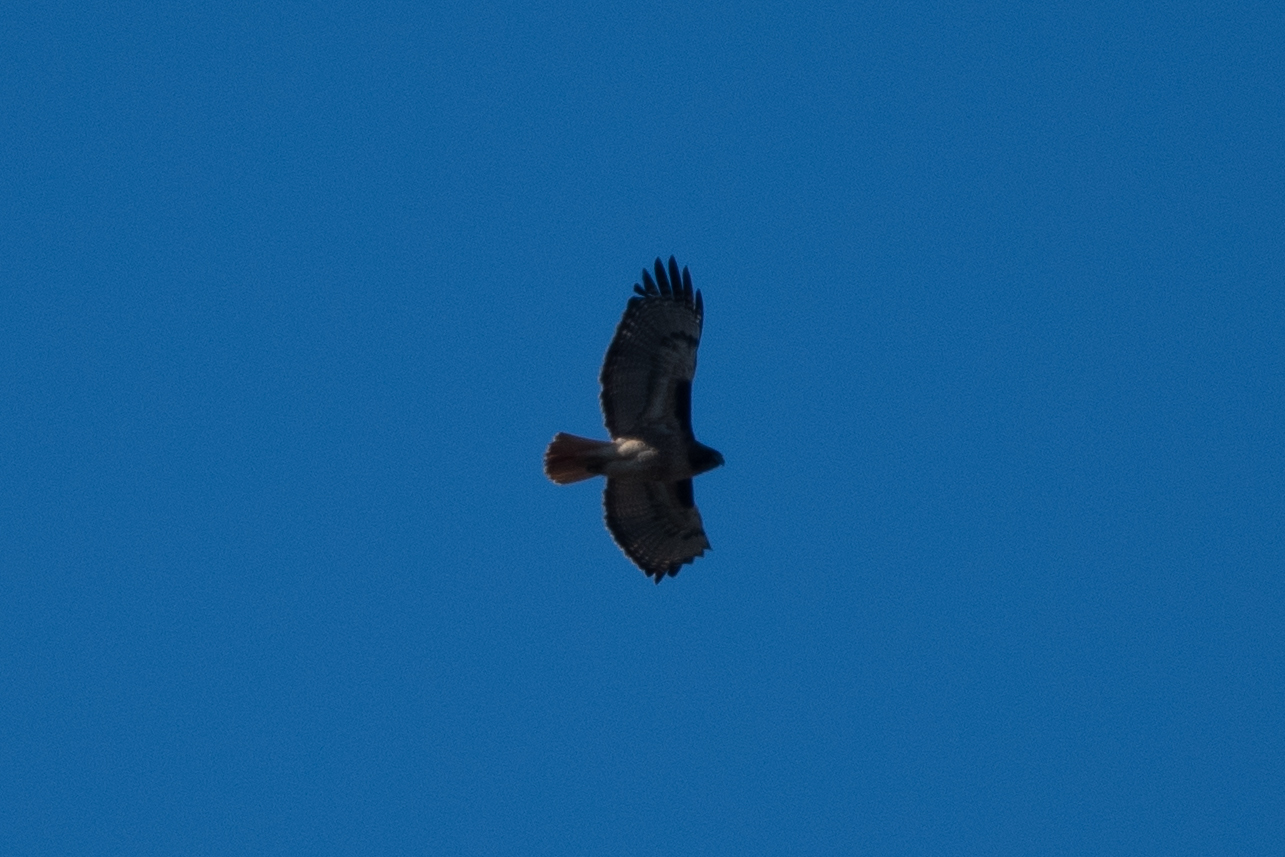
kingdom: Animalia
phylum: Chordata
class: Aves
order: Accipitriformes
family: Accipitridae
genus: Buteo
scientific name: Buteo jamaicensis
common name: Red-tailed hawk
